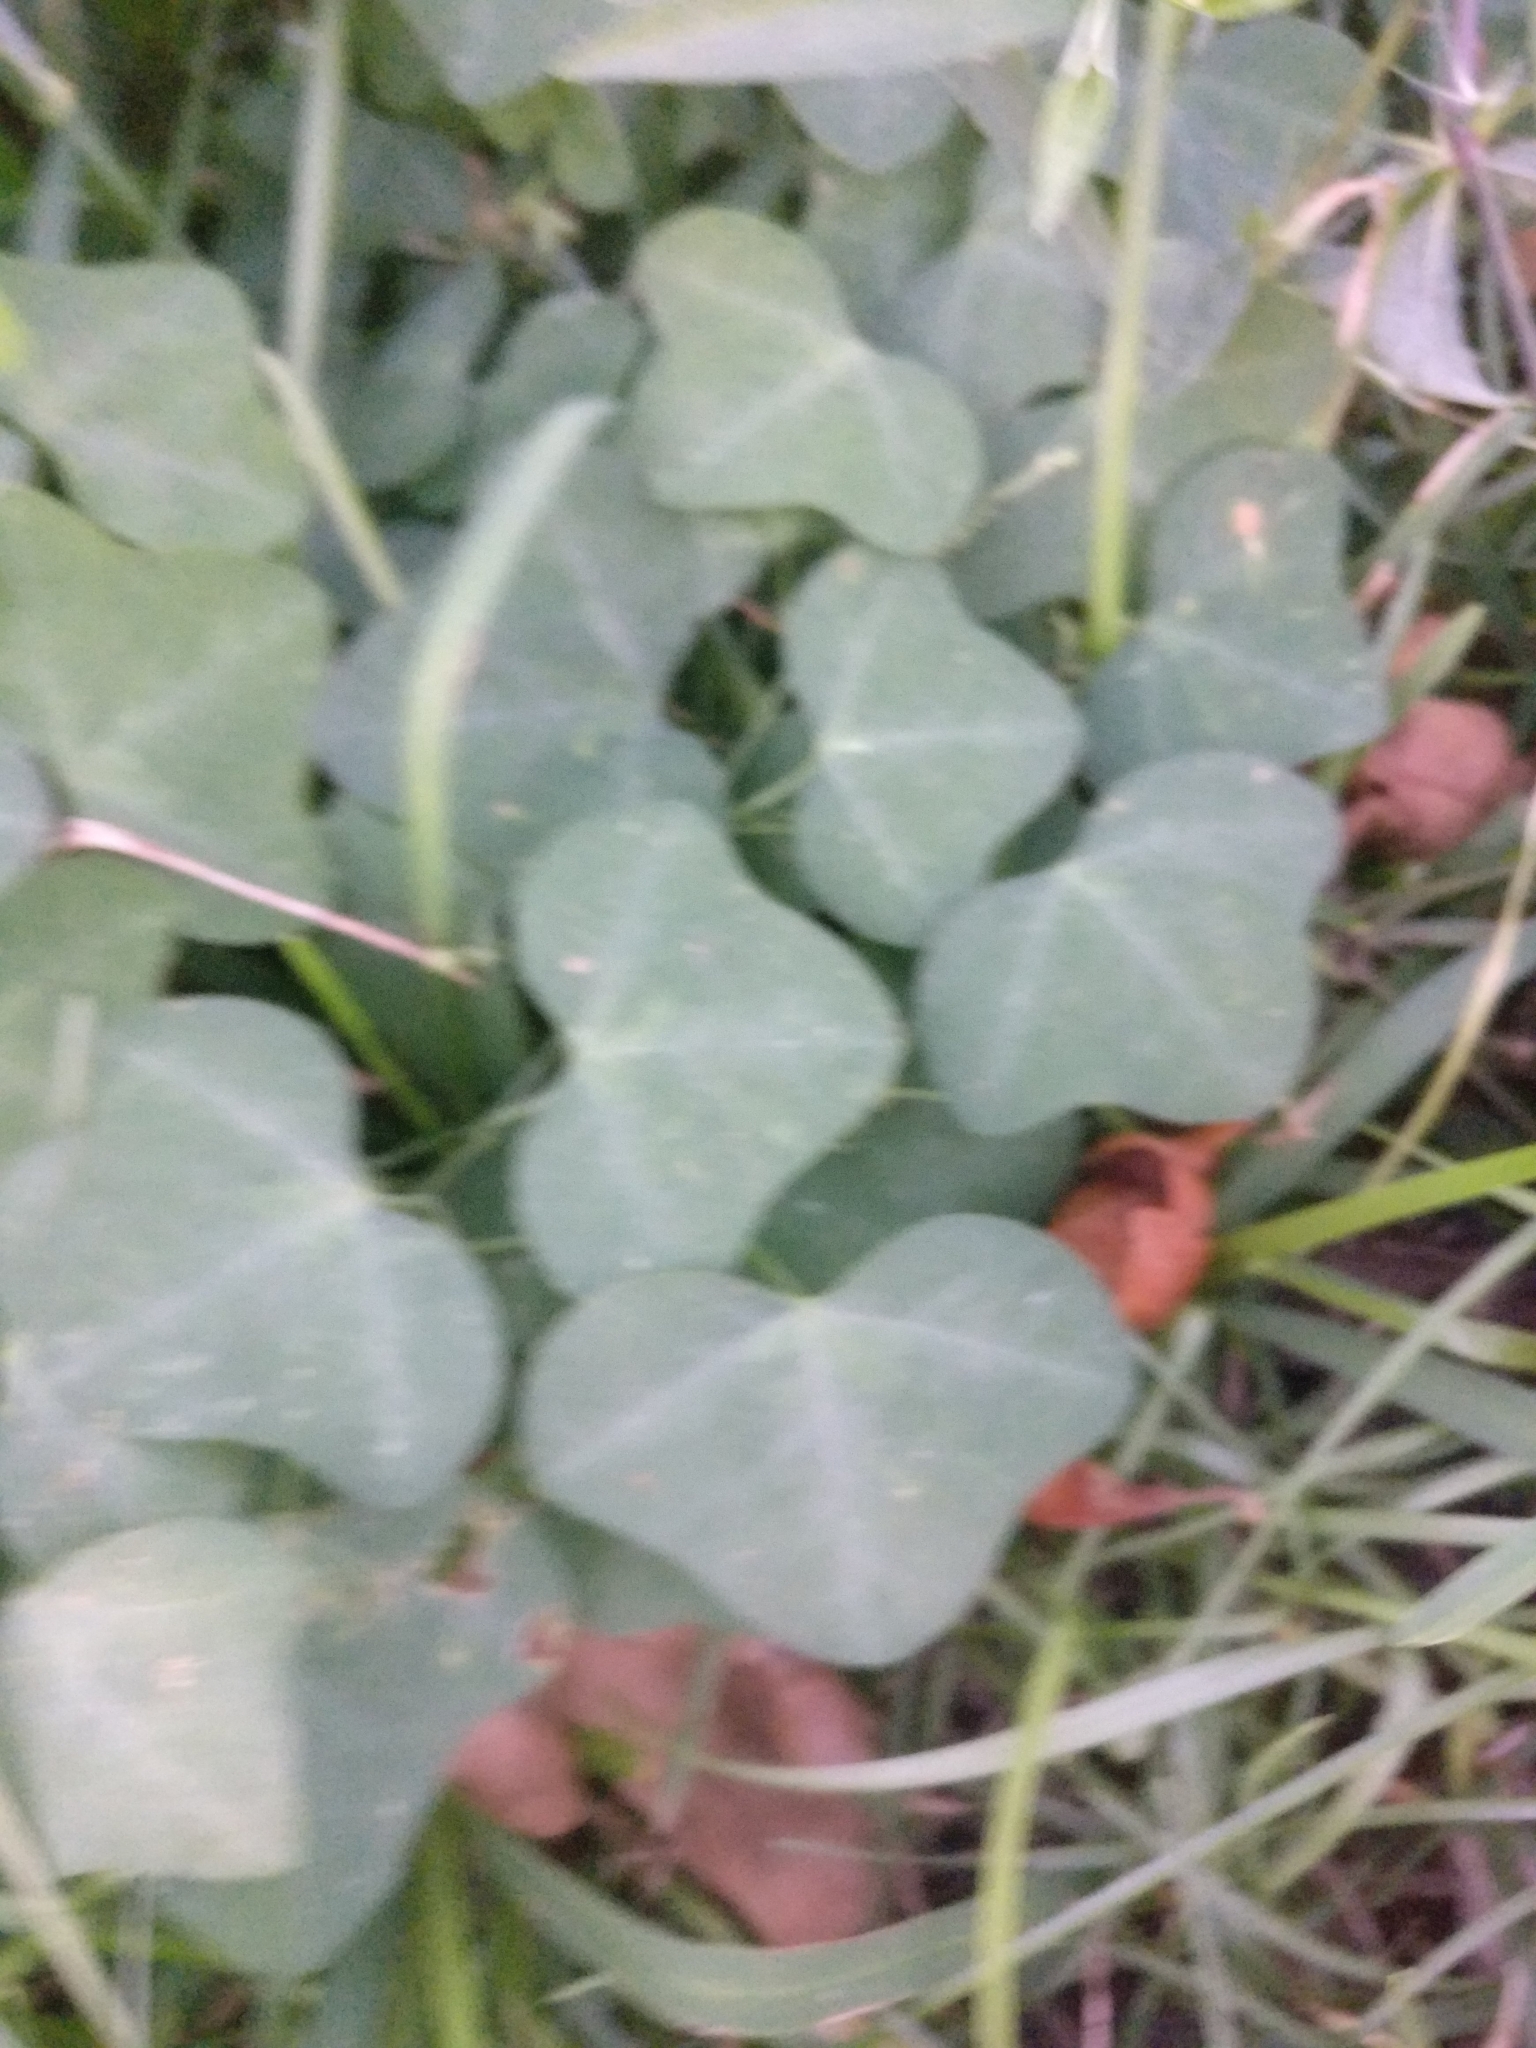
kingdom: Plantae
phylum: Tracheophyta
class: Magnoliopsida
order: Malpighiales
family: Passifloraceae
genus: Passiflora
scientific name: Passiflora lutea
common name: Yellow passionflower
